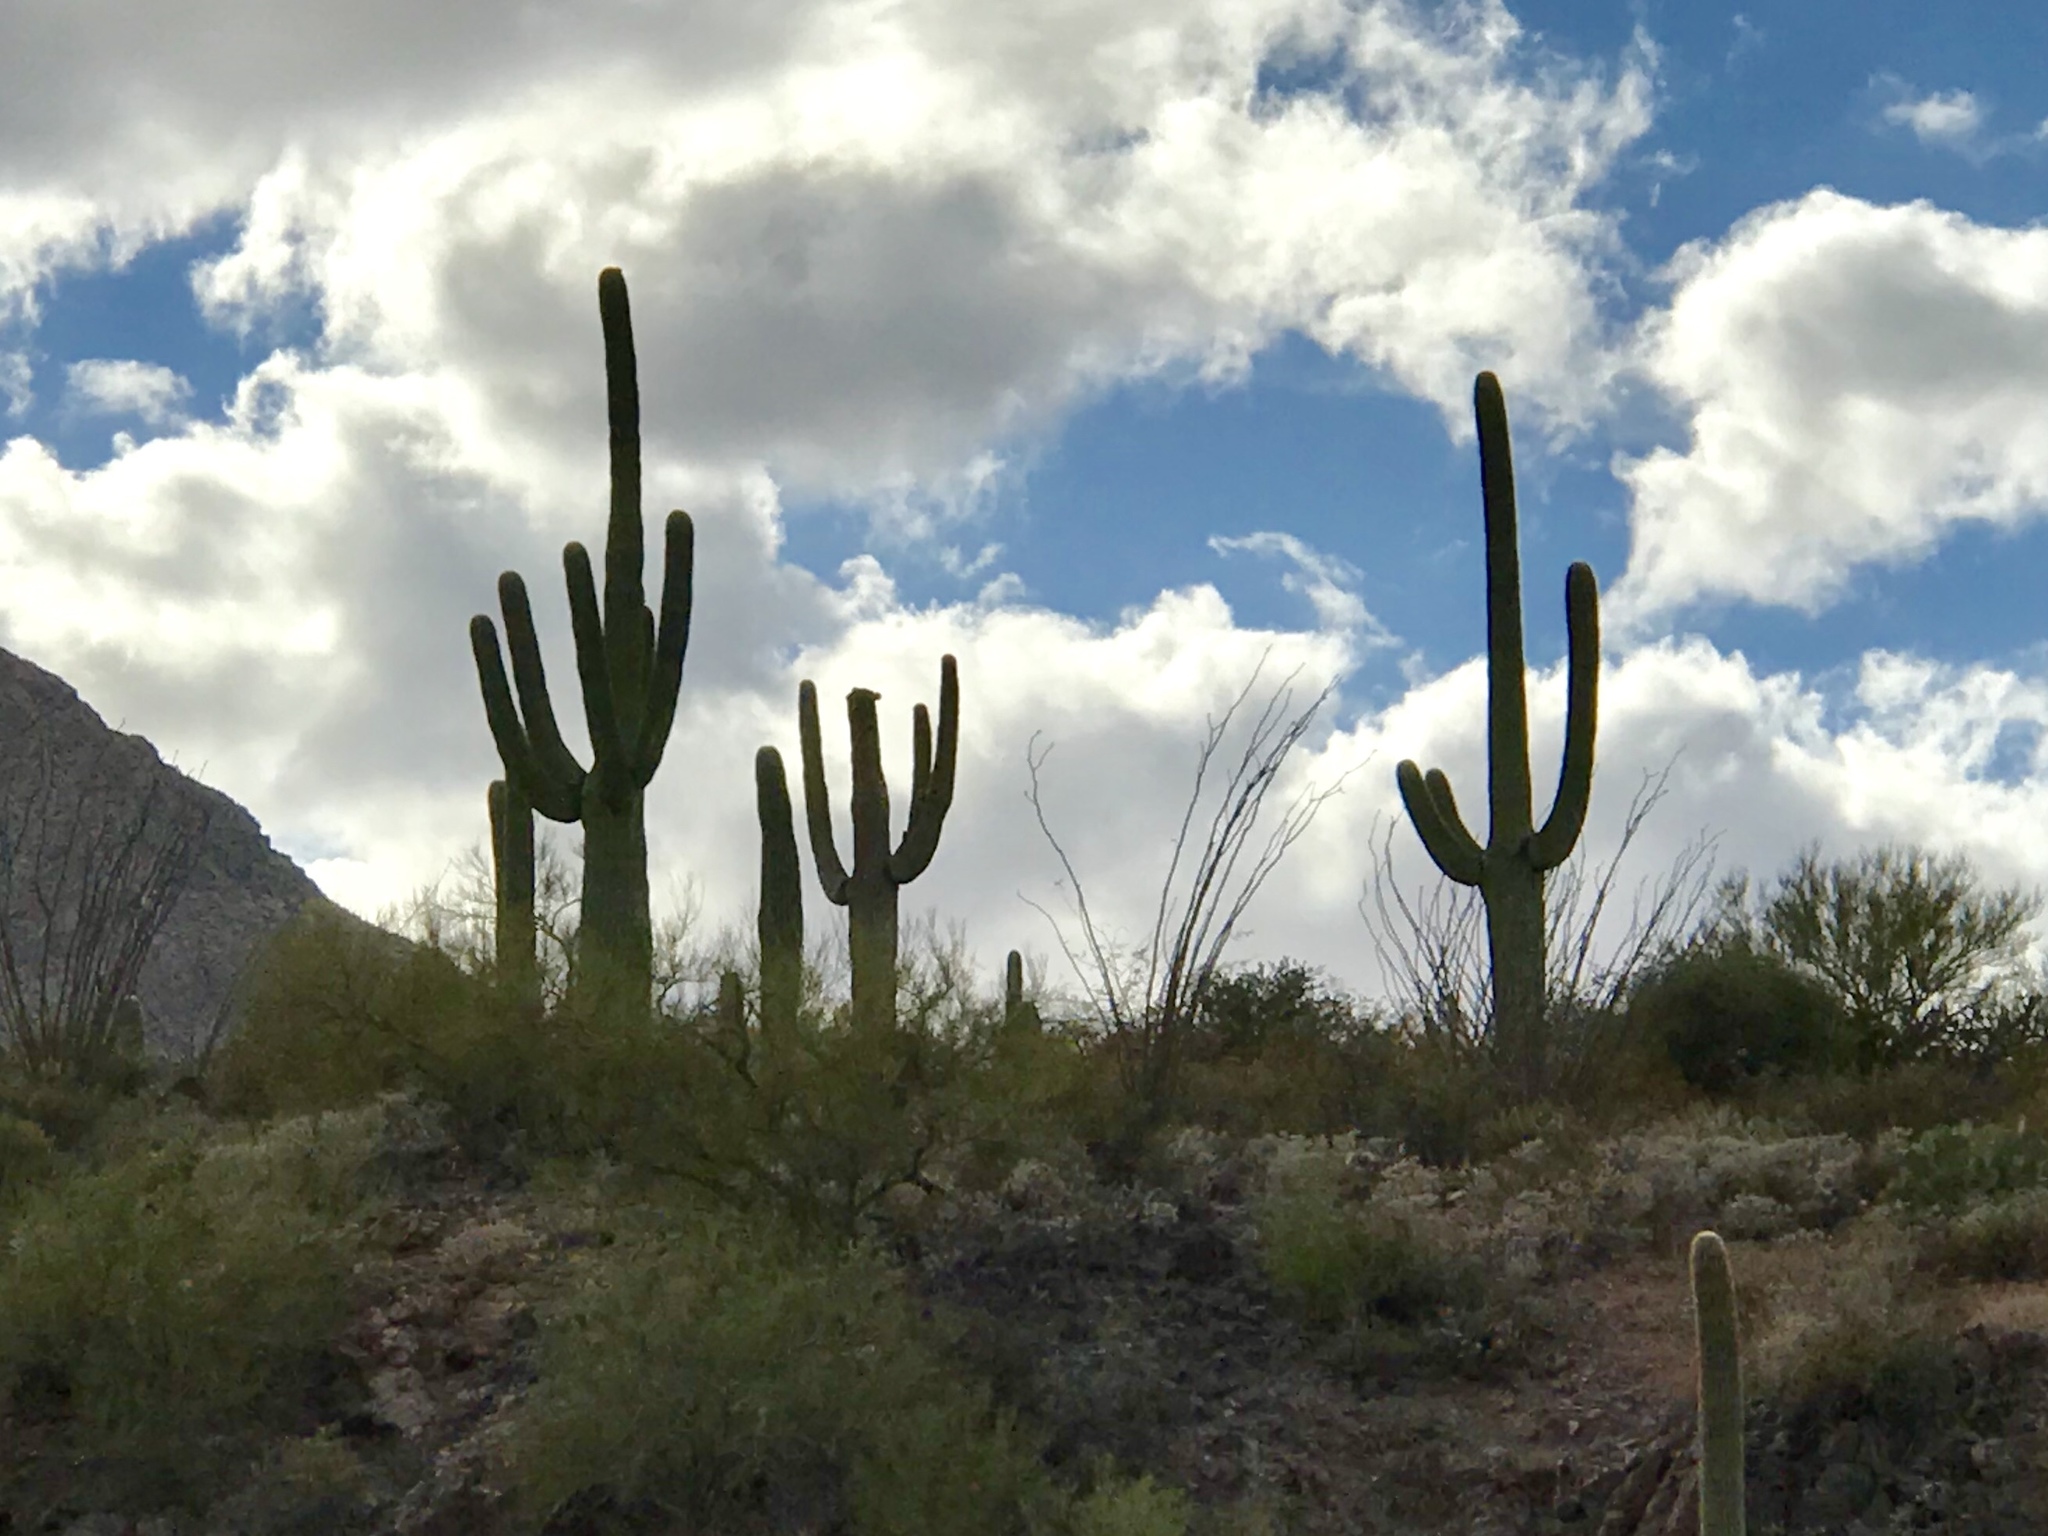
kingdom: Plantae
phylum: Tracheophyta
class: Magnoliopsida
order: Caryophyllales
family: Cactaceae
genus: Carnegiea
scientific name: Carnegiea gigantea
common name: Saguaro
